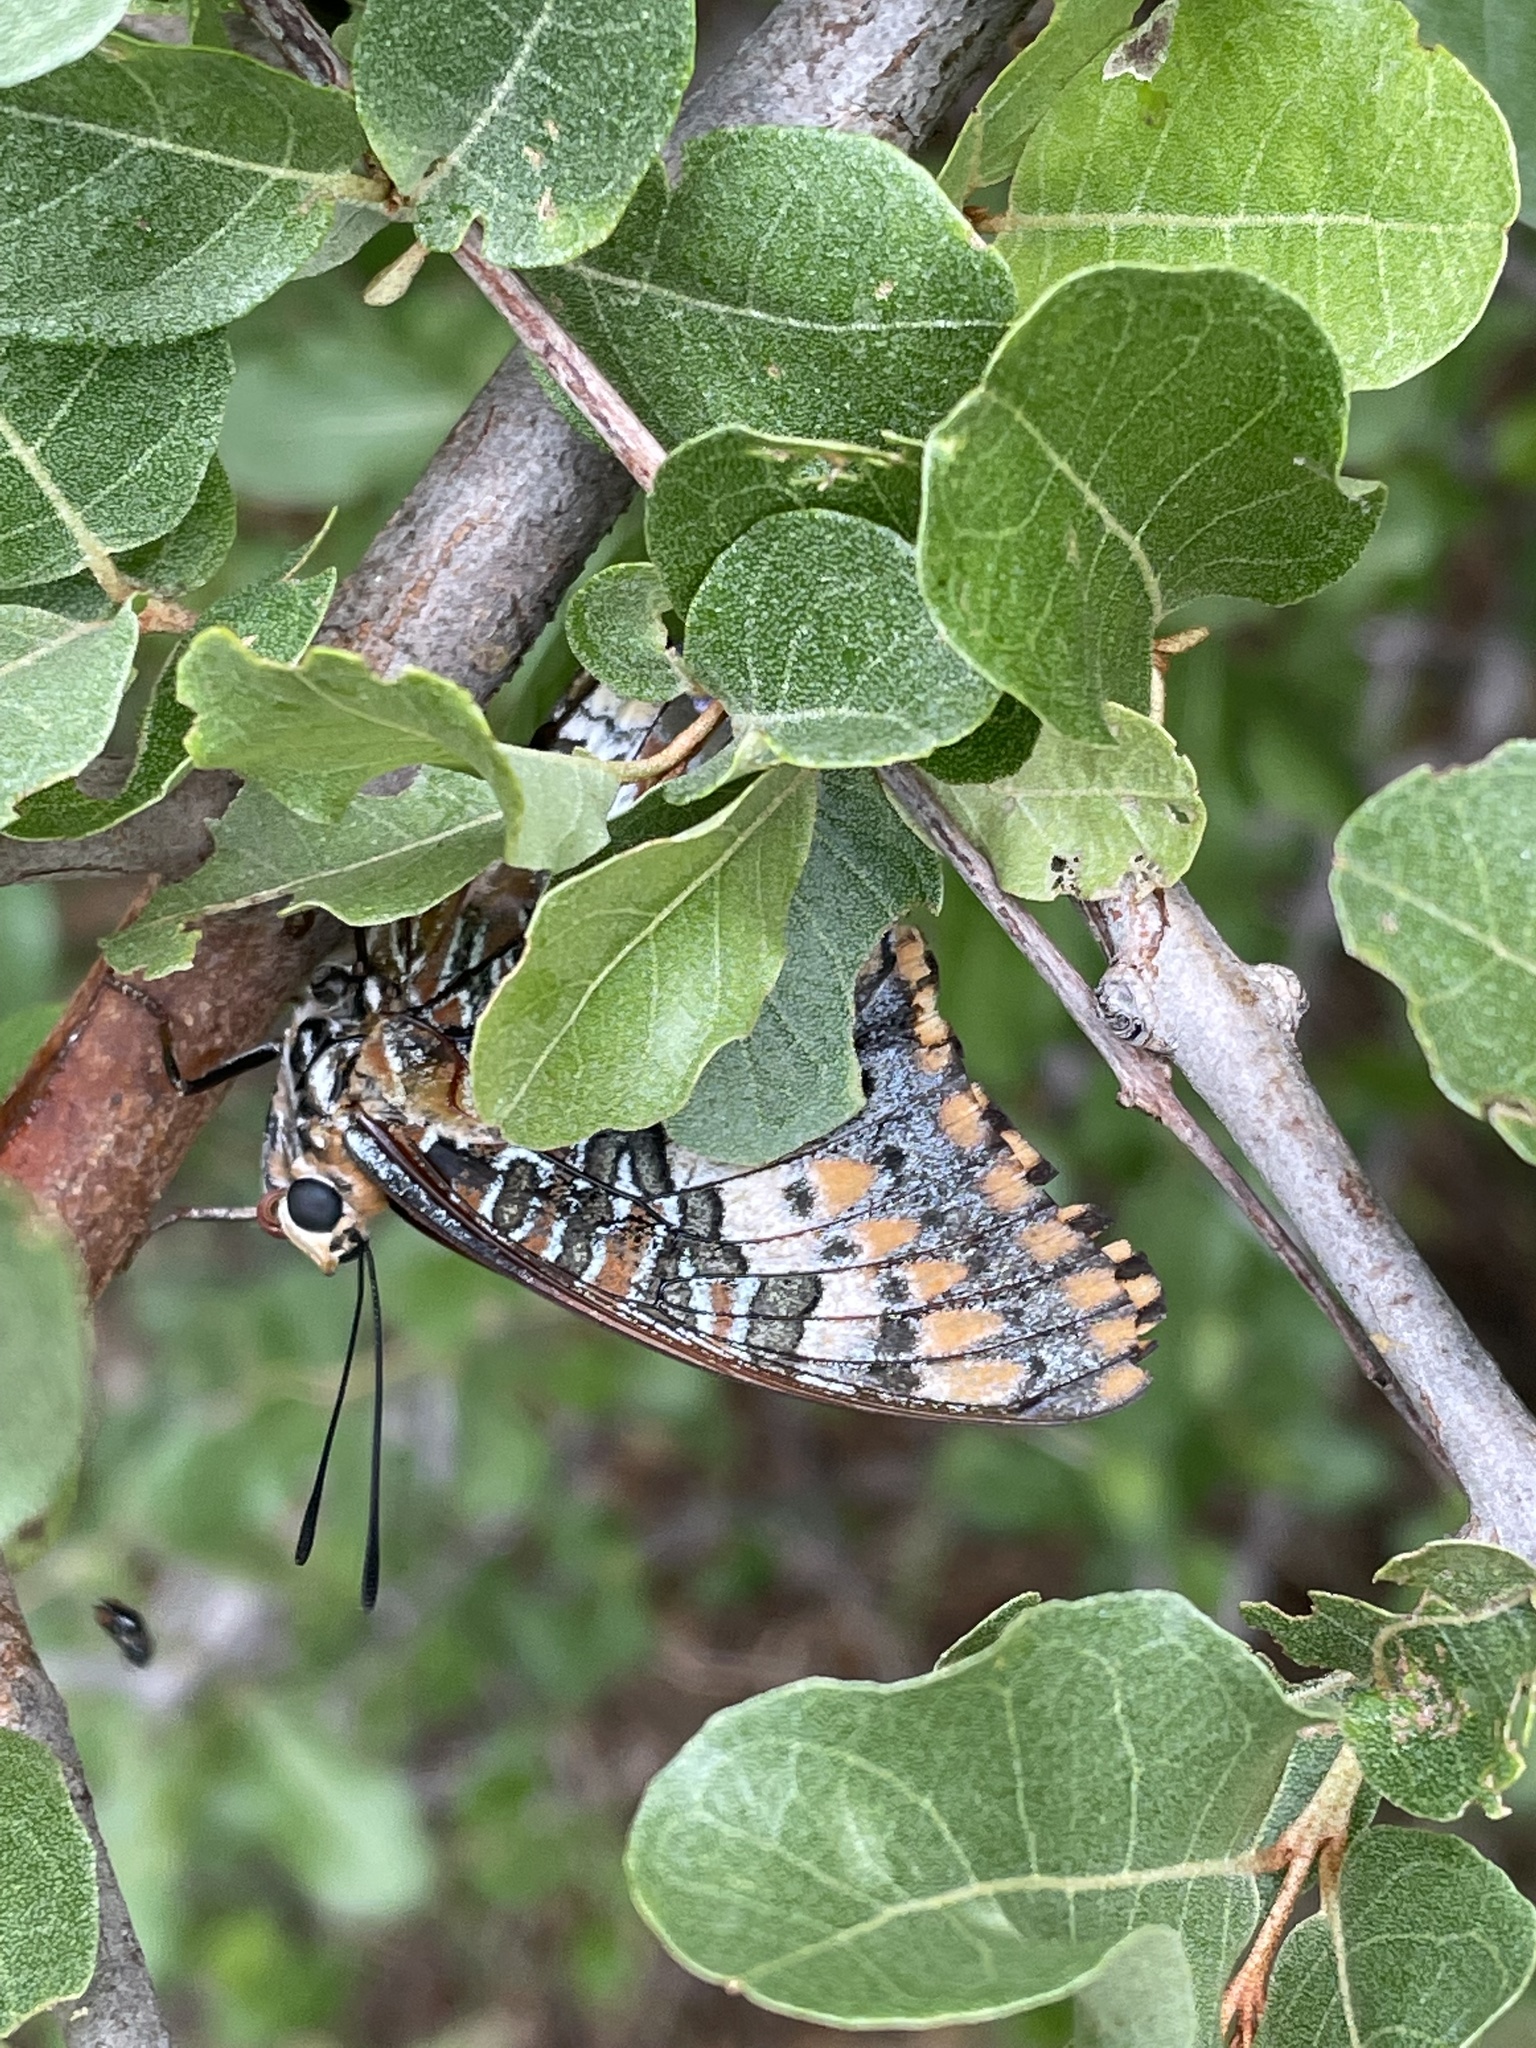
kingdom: Animalia
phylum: Arthropoda
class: Insecta
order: Lepidoptera
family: Nymphalidae
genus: Charaxes
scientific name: Charaxes jasius
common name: Two tailed pasha
